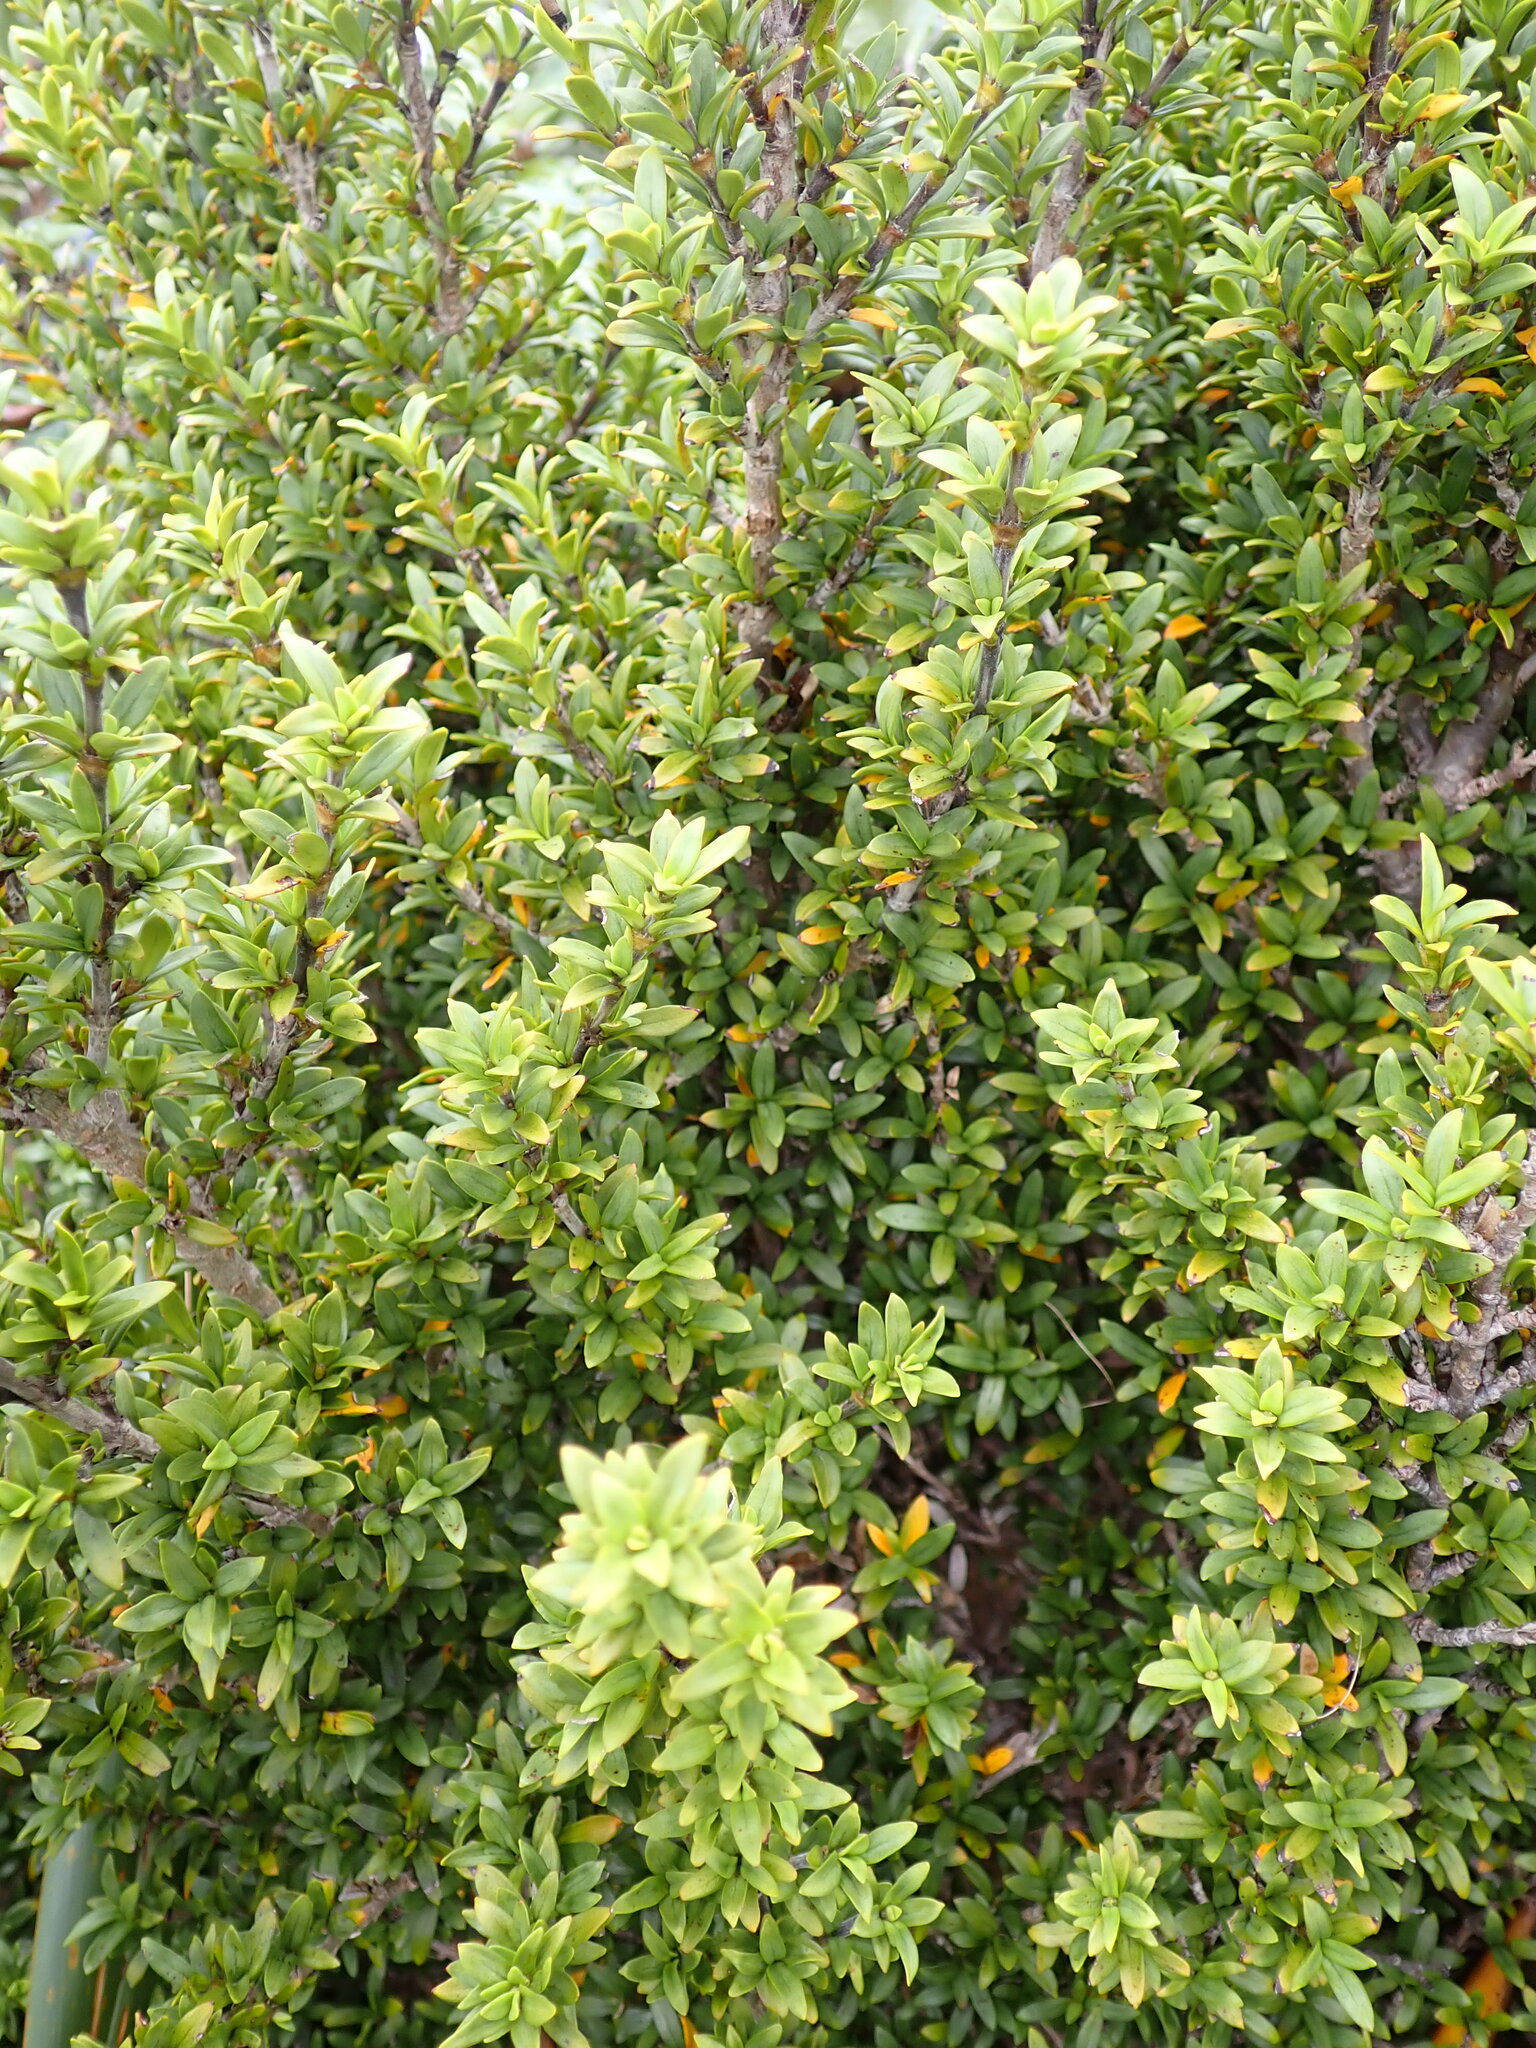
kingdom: Plantae
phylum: Tracheophyta
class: Magnoliopsida
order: Gentianales
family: Rubiaceae
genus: Coprosma
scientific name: Coprosma pseudocuneata
